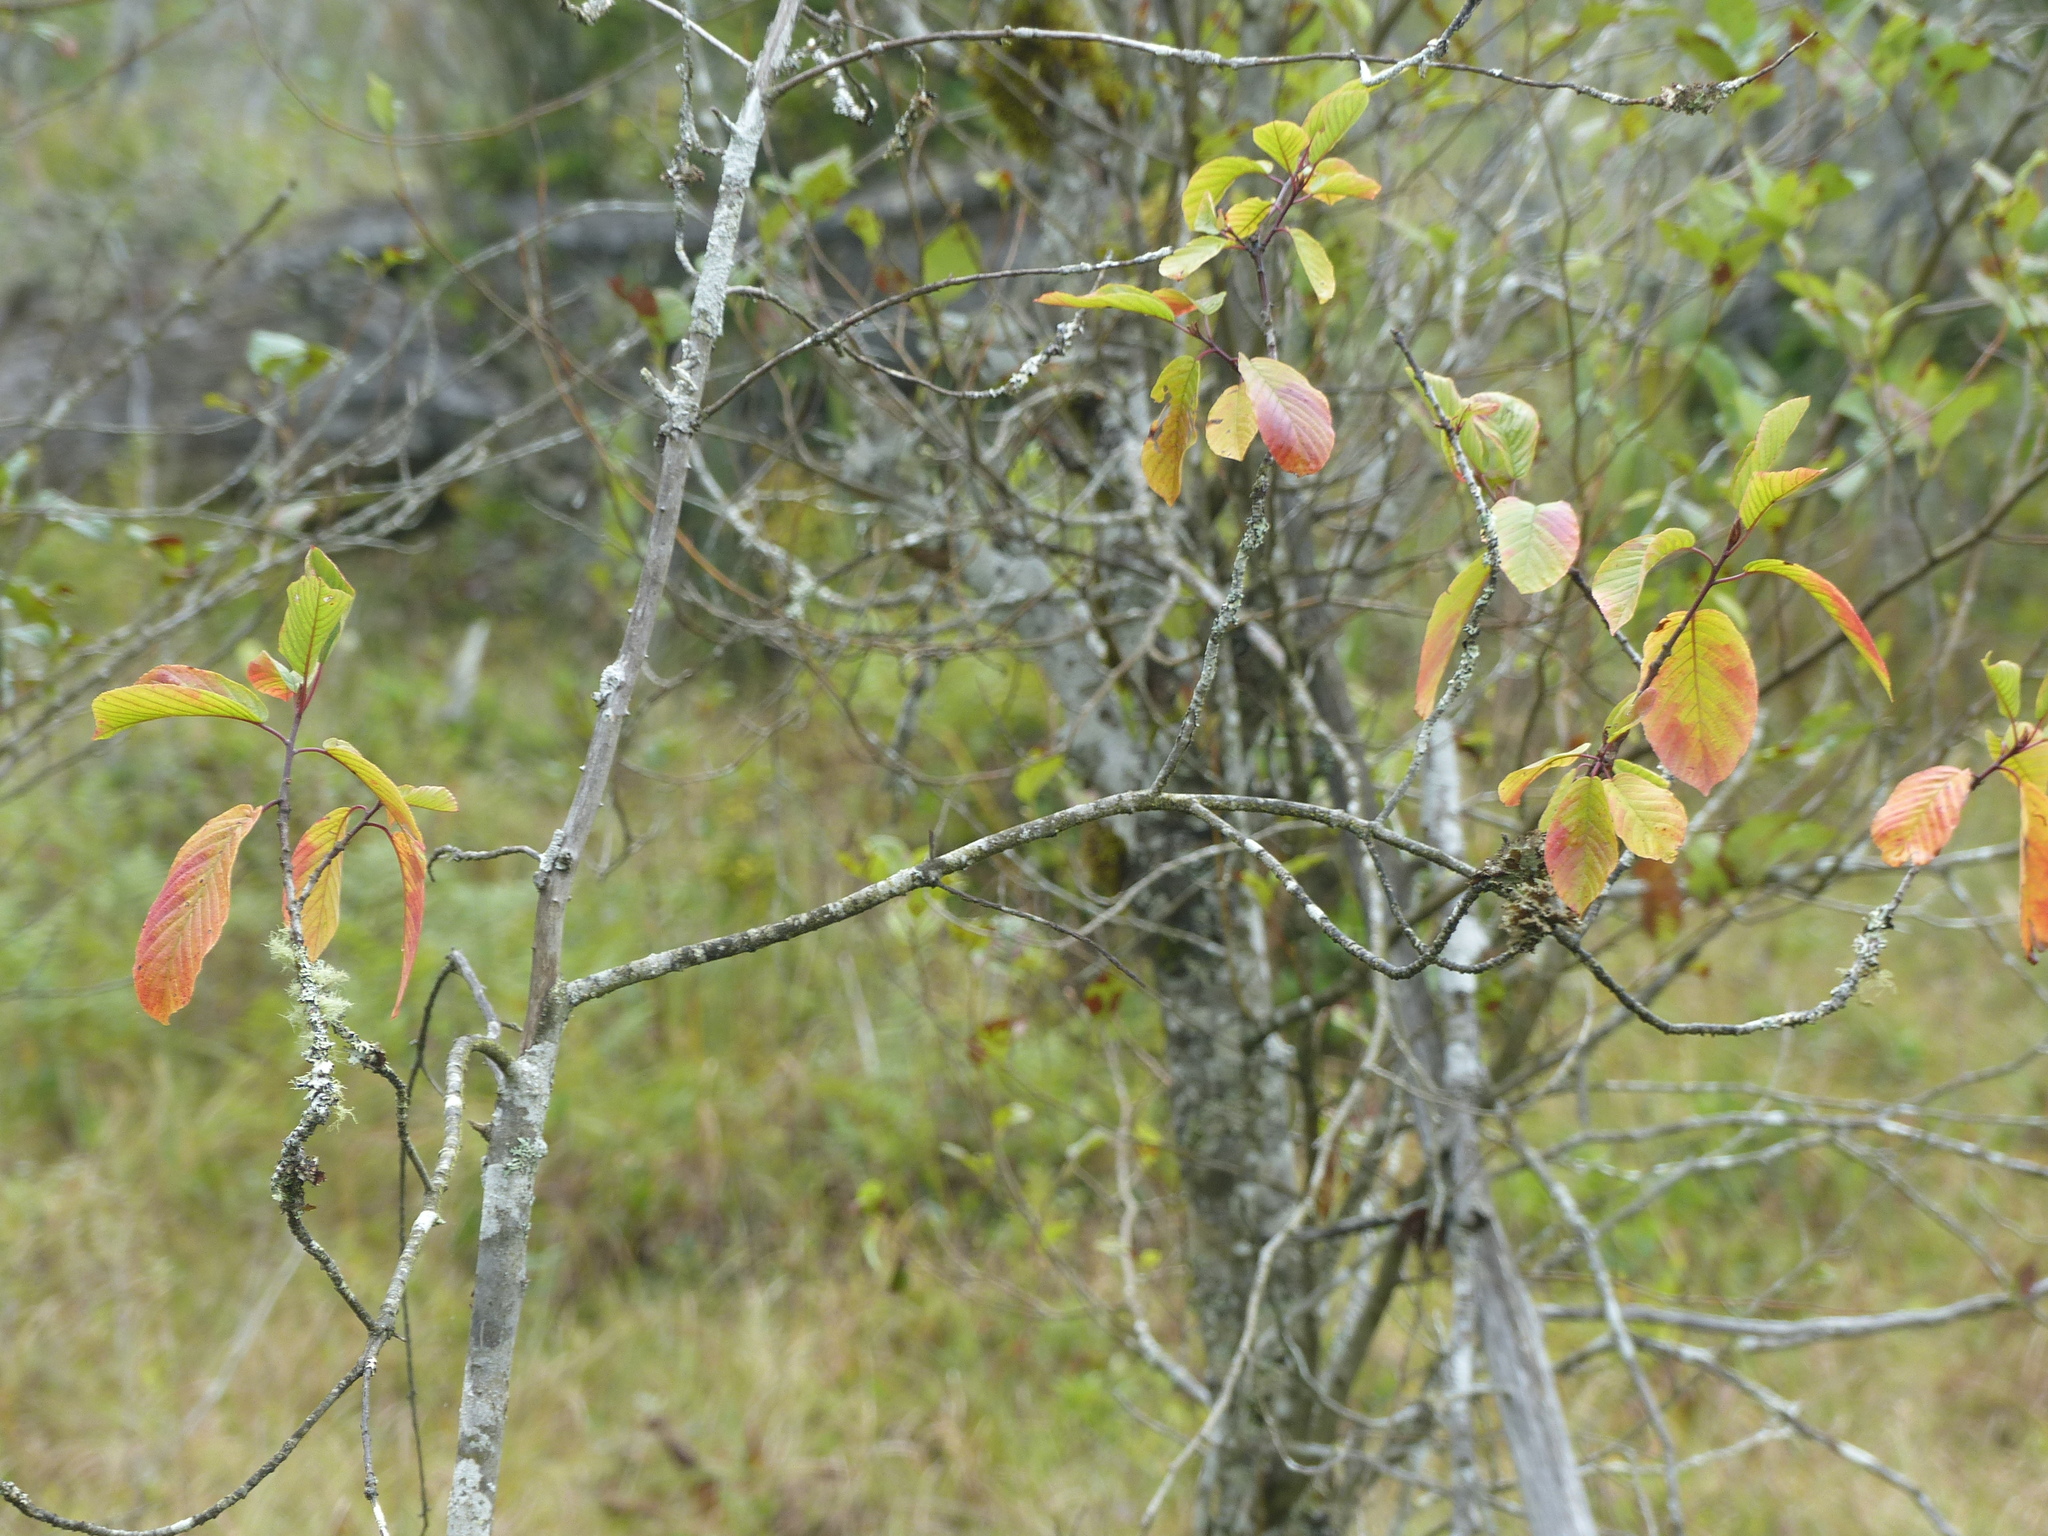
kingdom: Plantae
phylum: Tracheophyta
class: Magnoliopsida
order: Rosales
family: Rhamnaceae
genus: Frangula
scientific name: Frangula purshiana
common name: Cascara buckthorn
